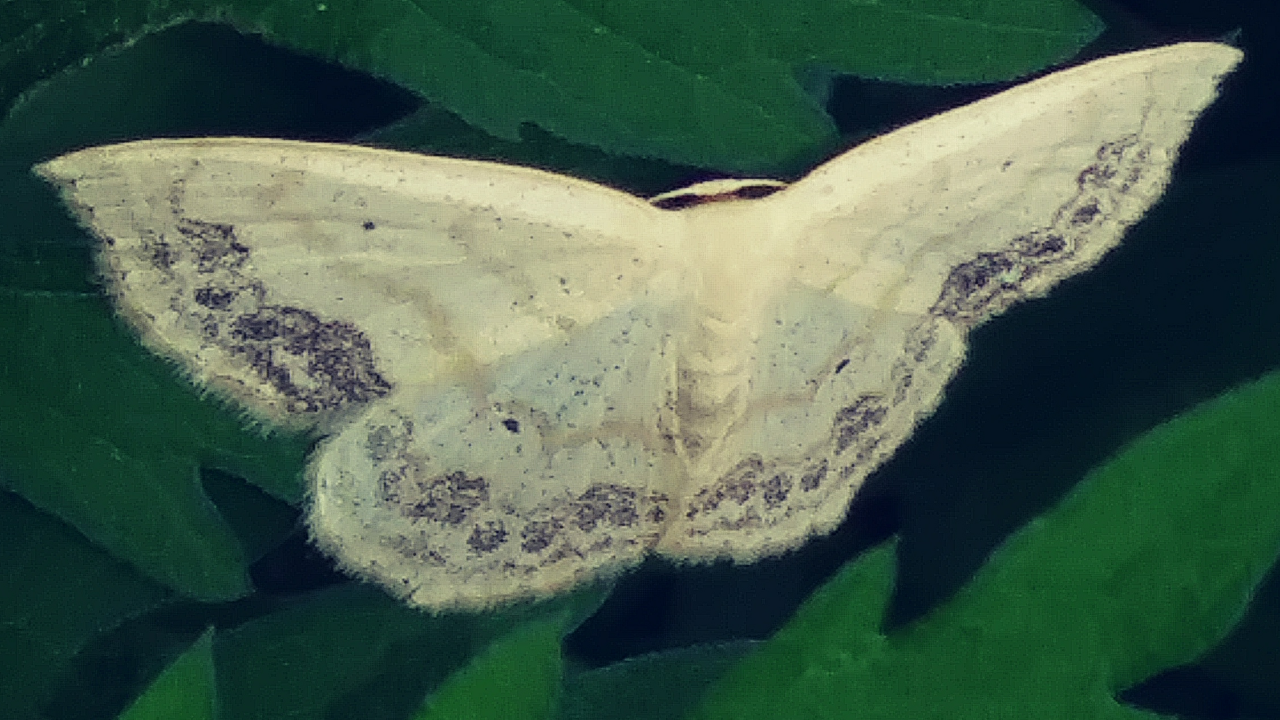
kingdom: Animalia
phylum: Arthropoda
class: Insecta
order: Lepidoptera
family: Geometridae
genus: Scopula
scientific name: Scopula limboundata
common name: Large lace border
